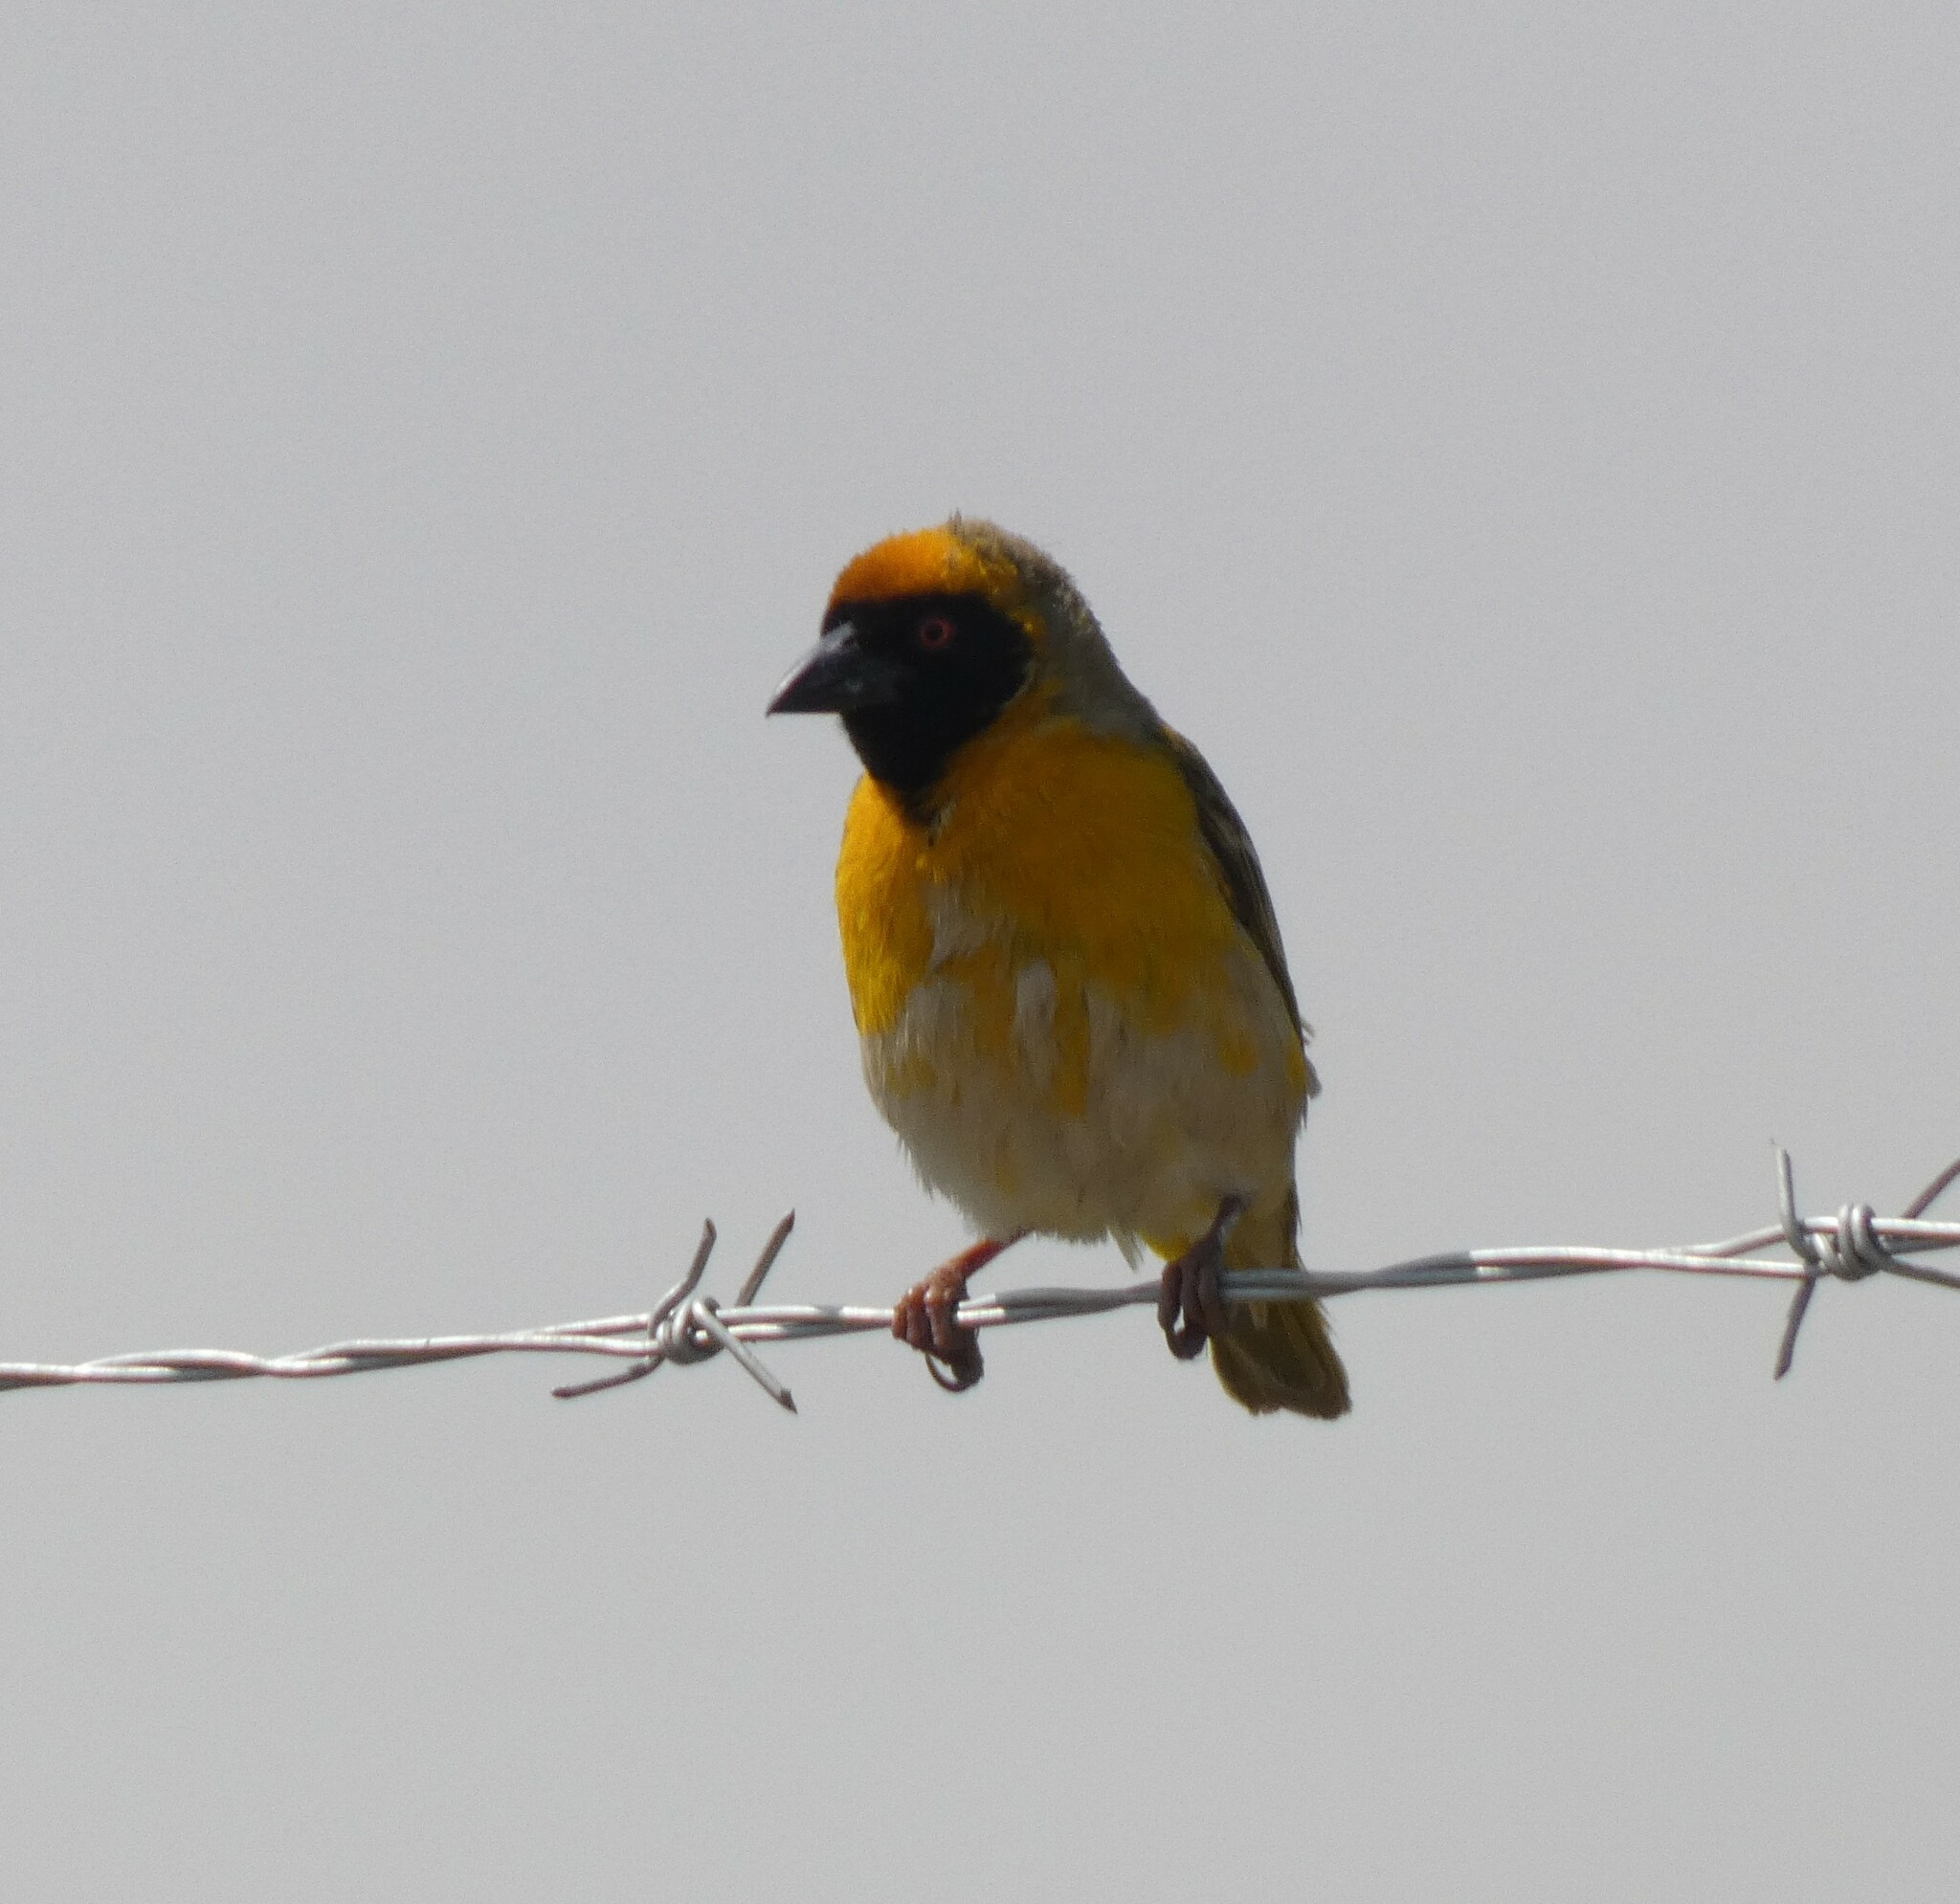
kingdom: Animalia
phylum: Chordata
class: Aves
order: Passeriformes
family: Ploceidae
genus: Ploceus
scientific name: Ploceus velatus
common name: Southern masked weaver
